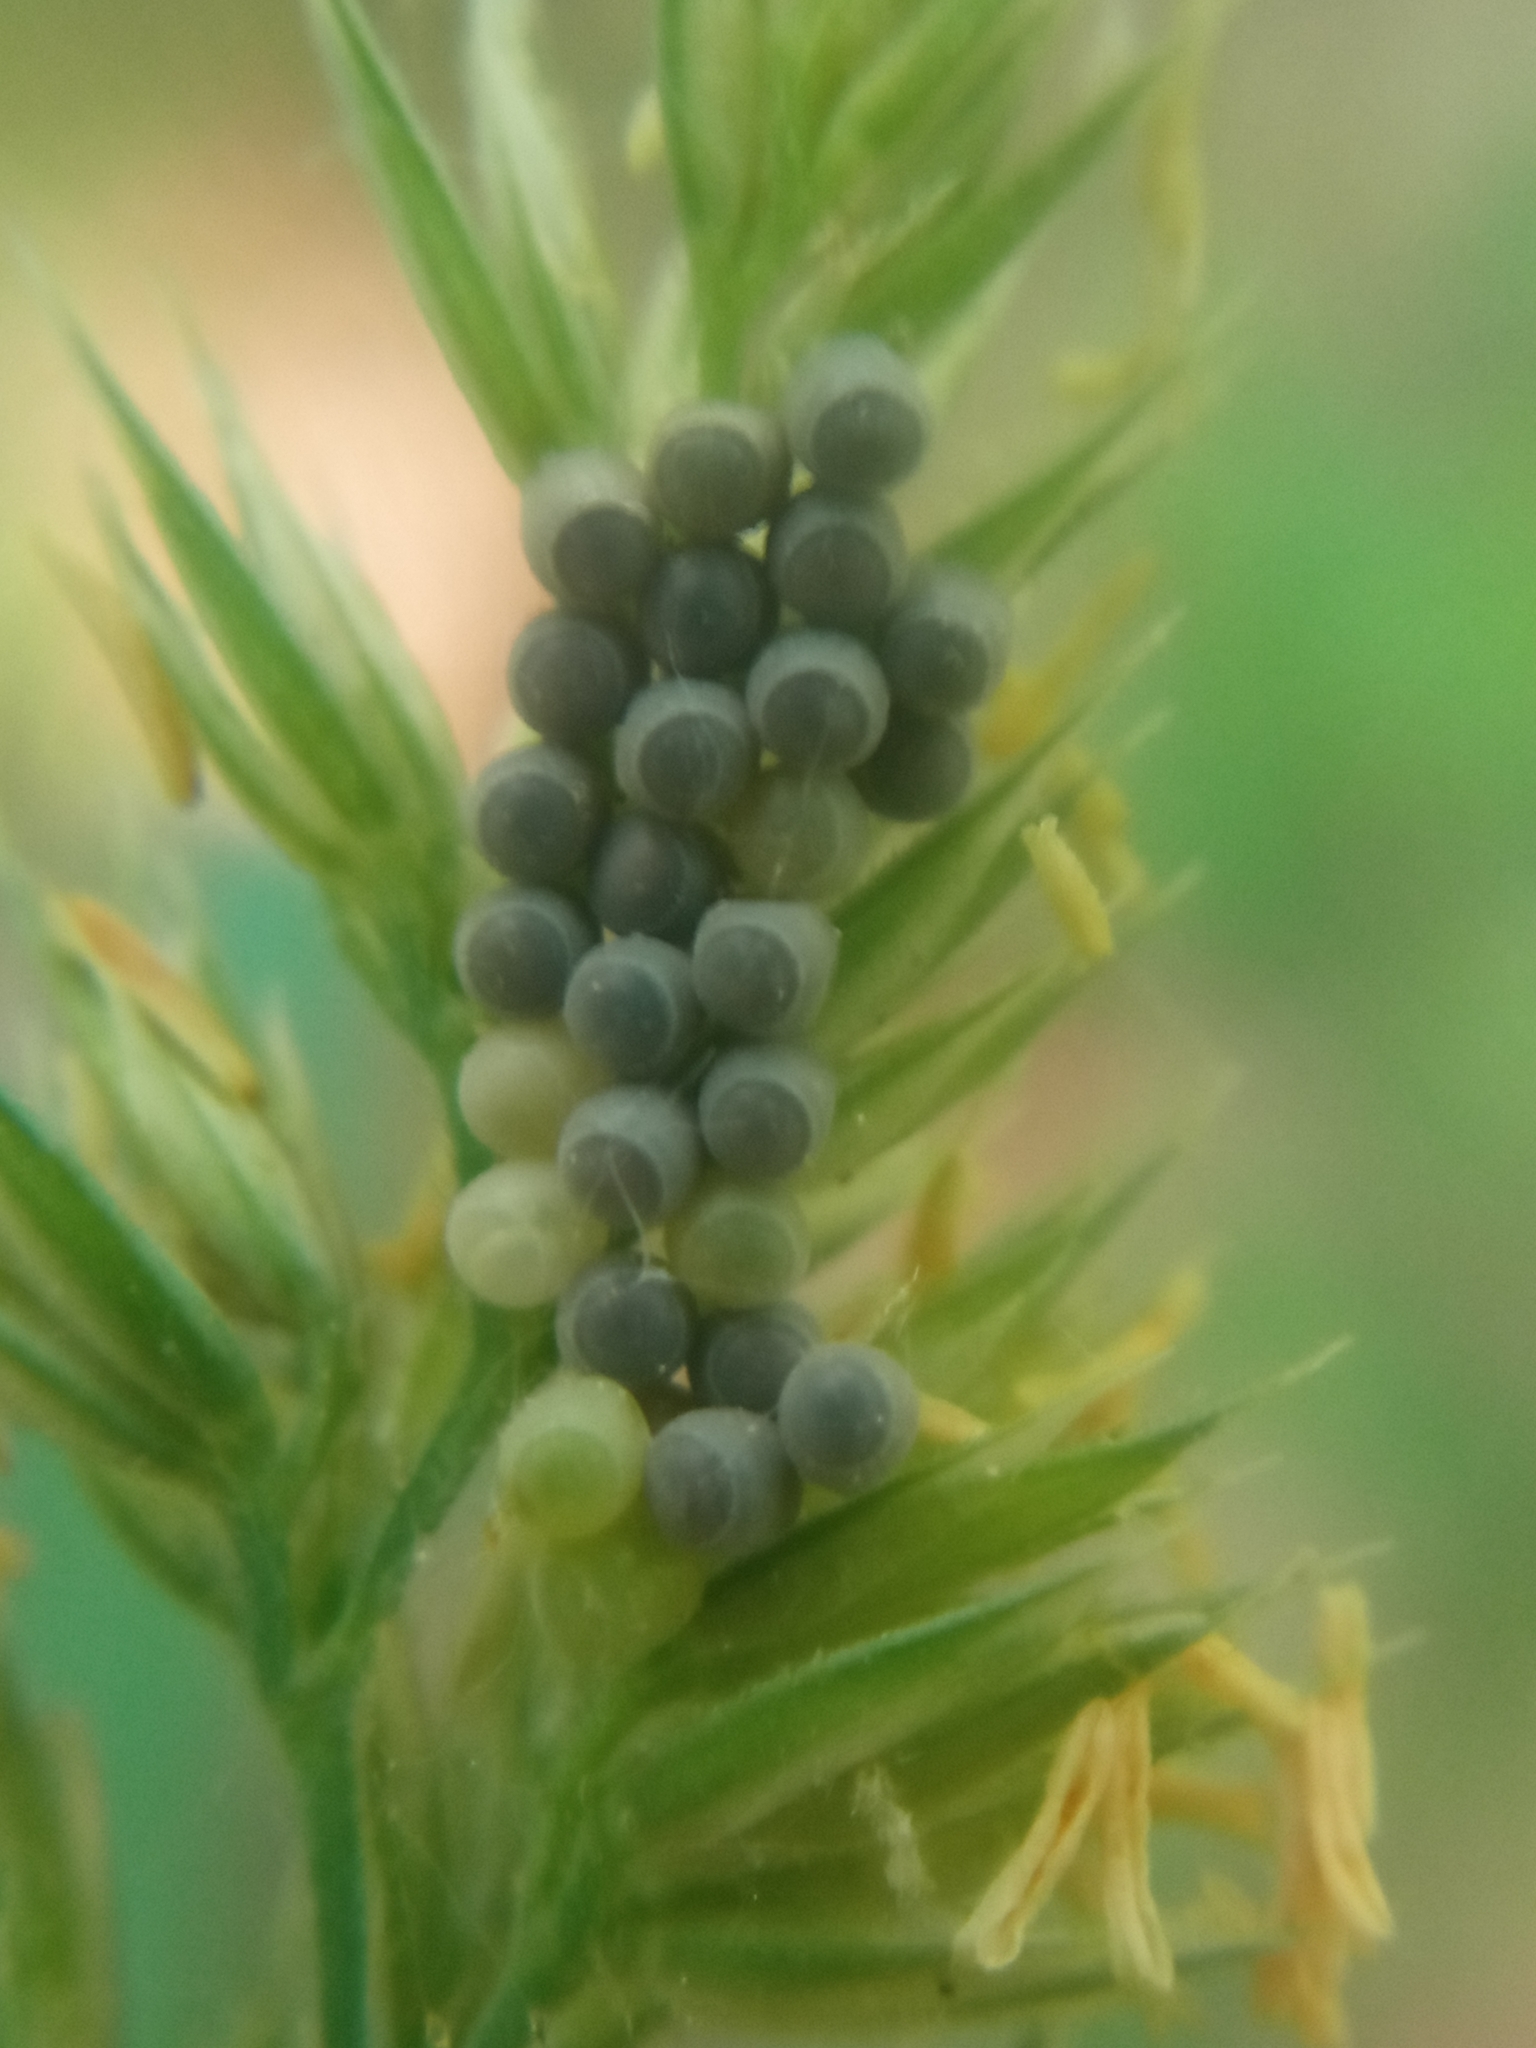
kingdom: Animalia
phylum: Arthropoda
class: Insecta
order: Hemiptera
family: Pentatomidae
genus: Palomena
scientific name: Palomena prasina
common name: Green shieldbug
